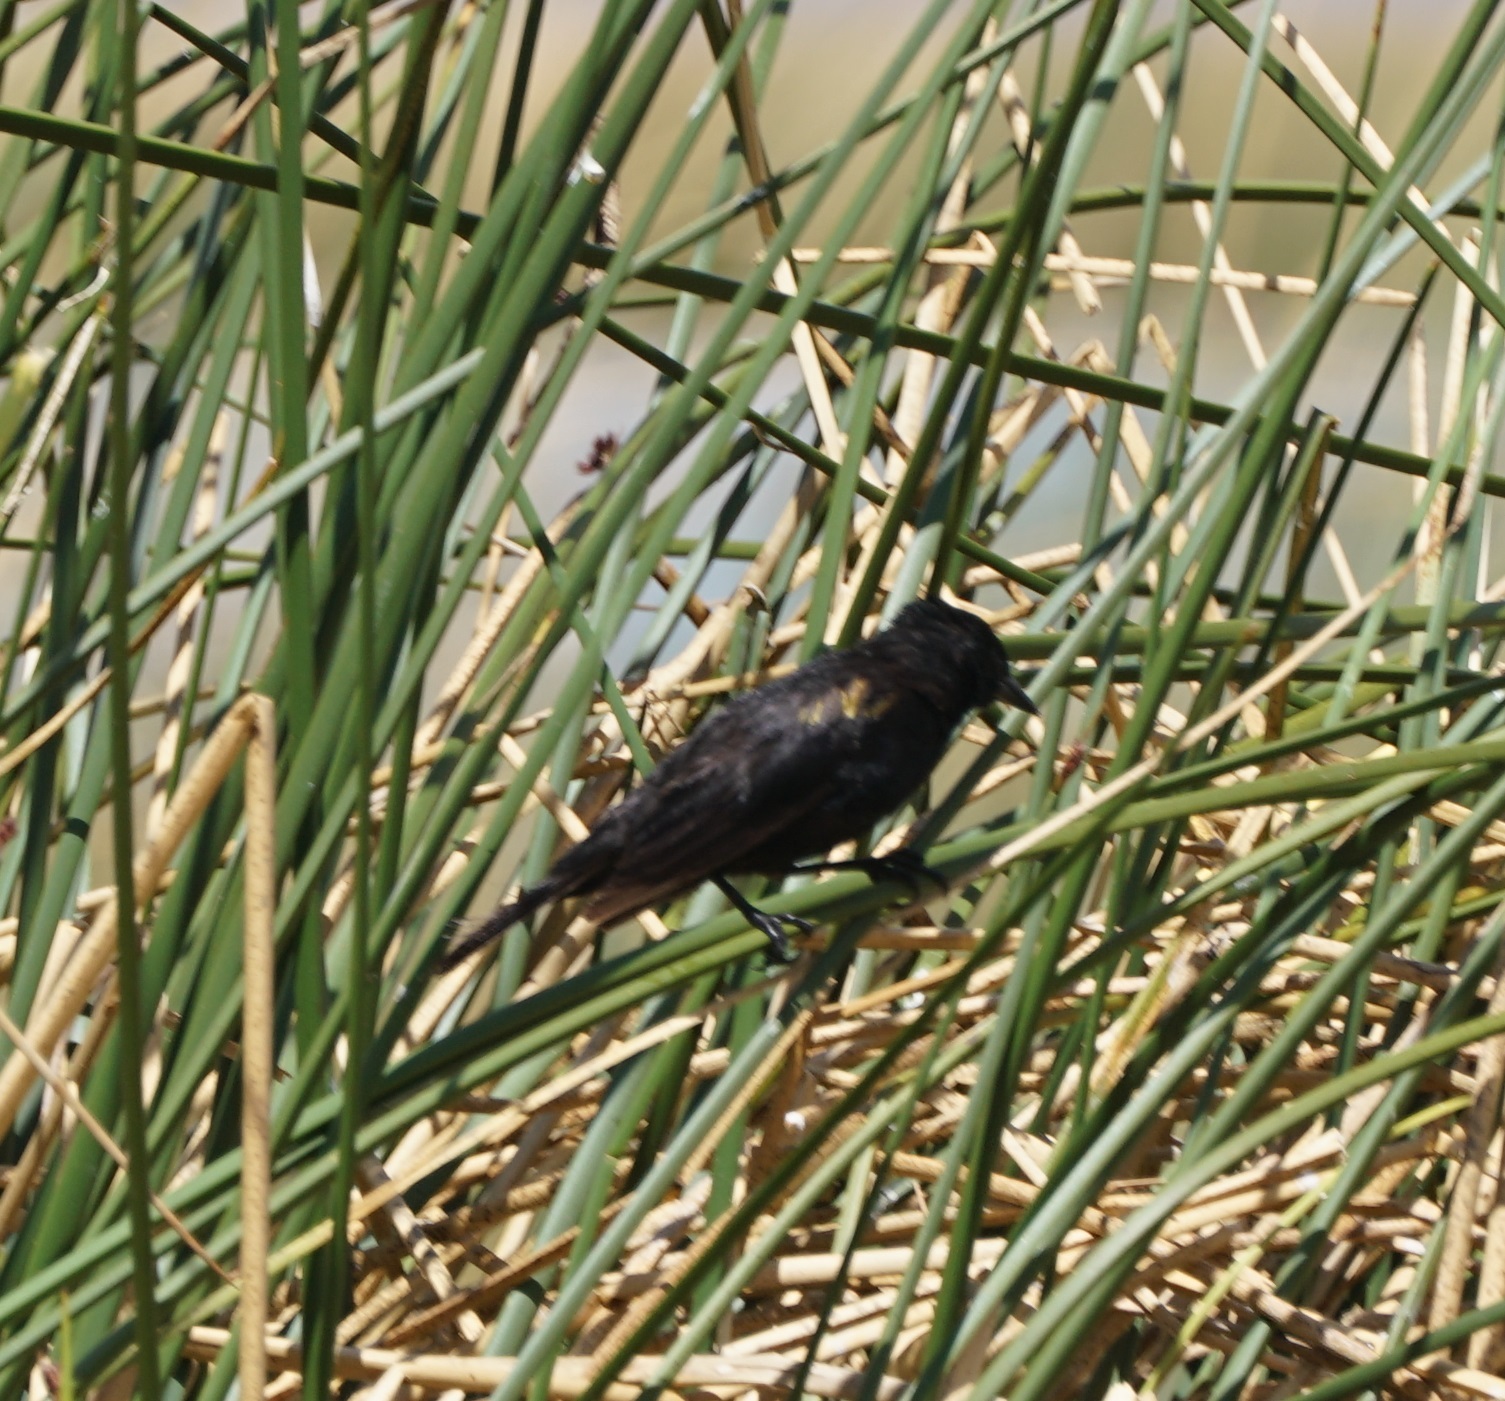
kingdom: Animalia
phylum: Chordata
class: Aves
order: Passeriformes
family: Icteridae
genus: Agelasticus
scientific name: Agelasticus thilius
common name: Yellow-winged blackbird
